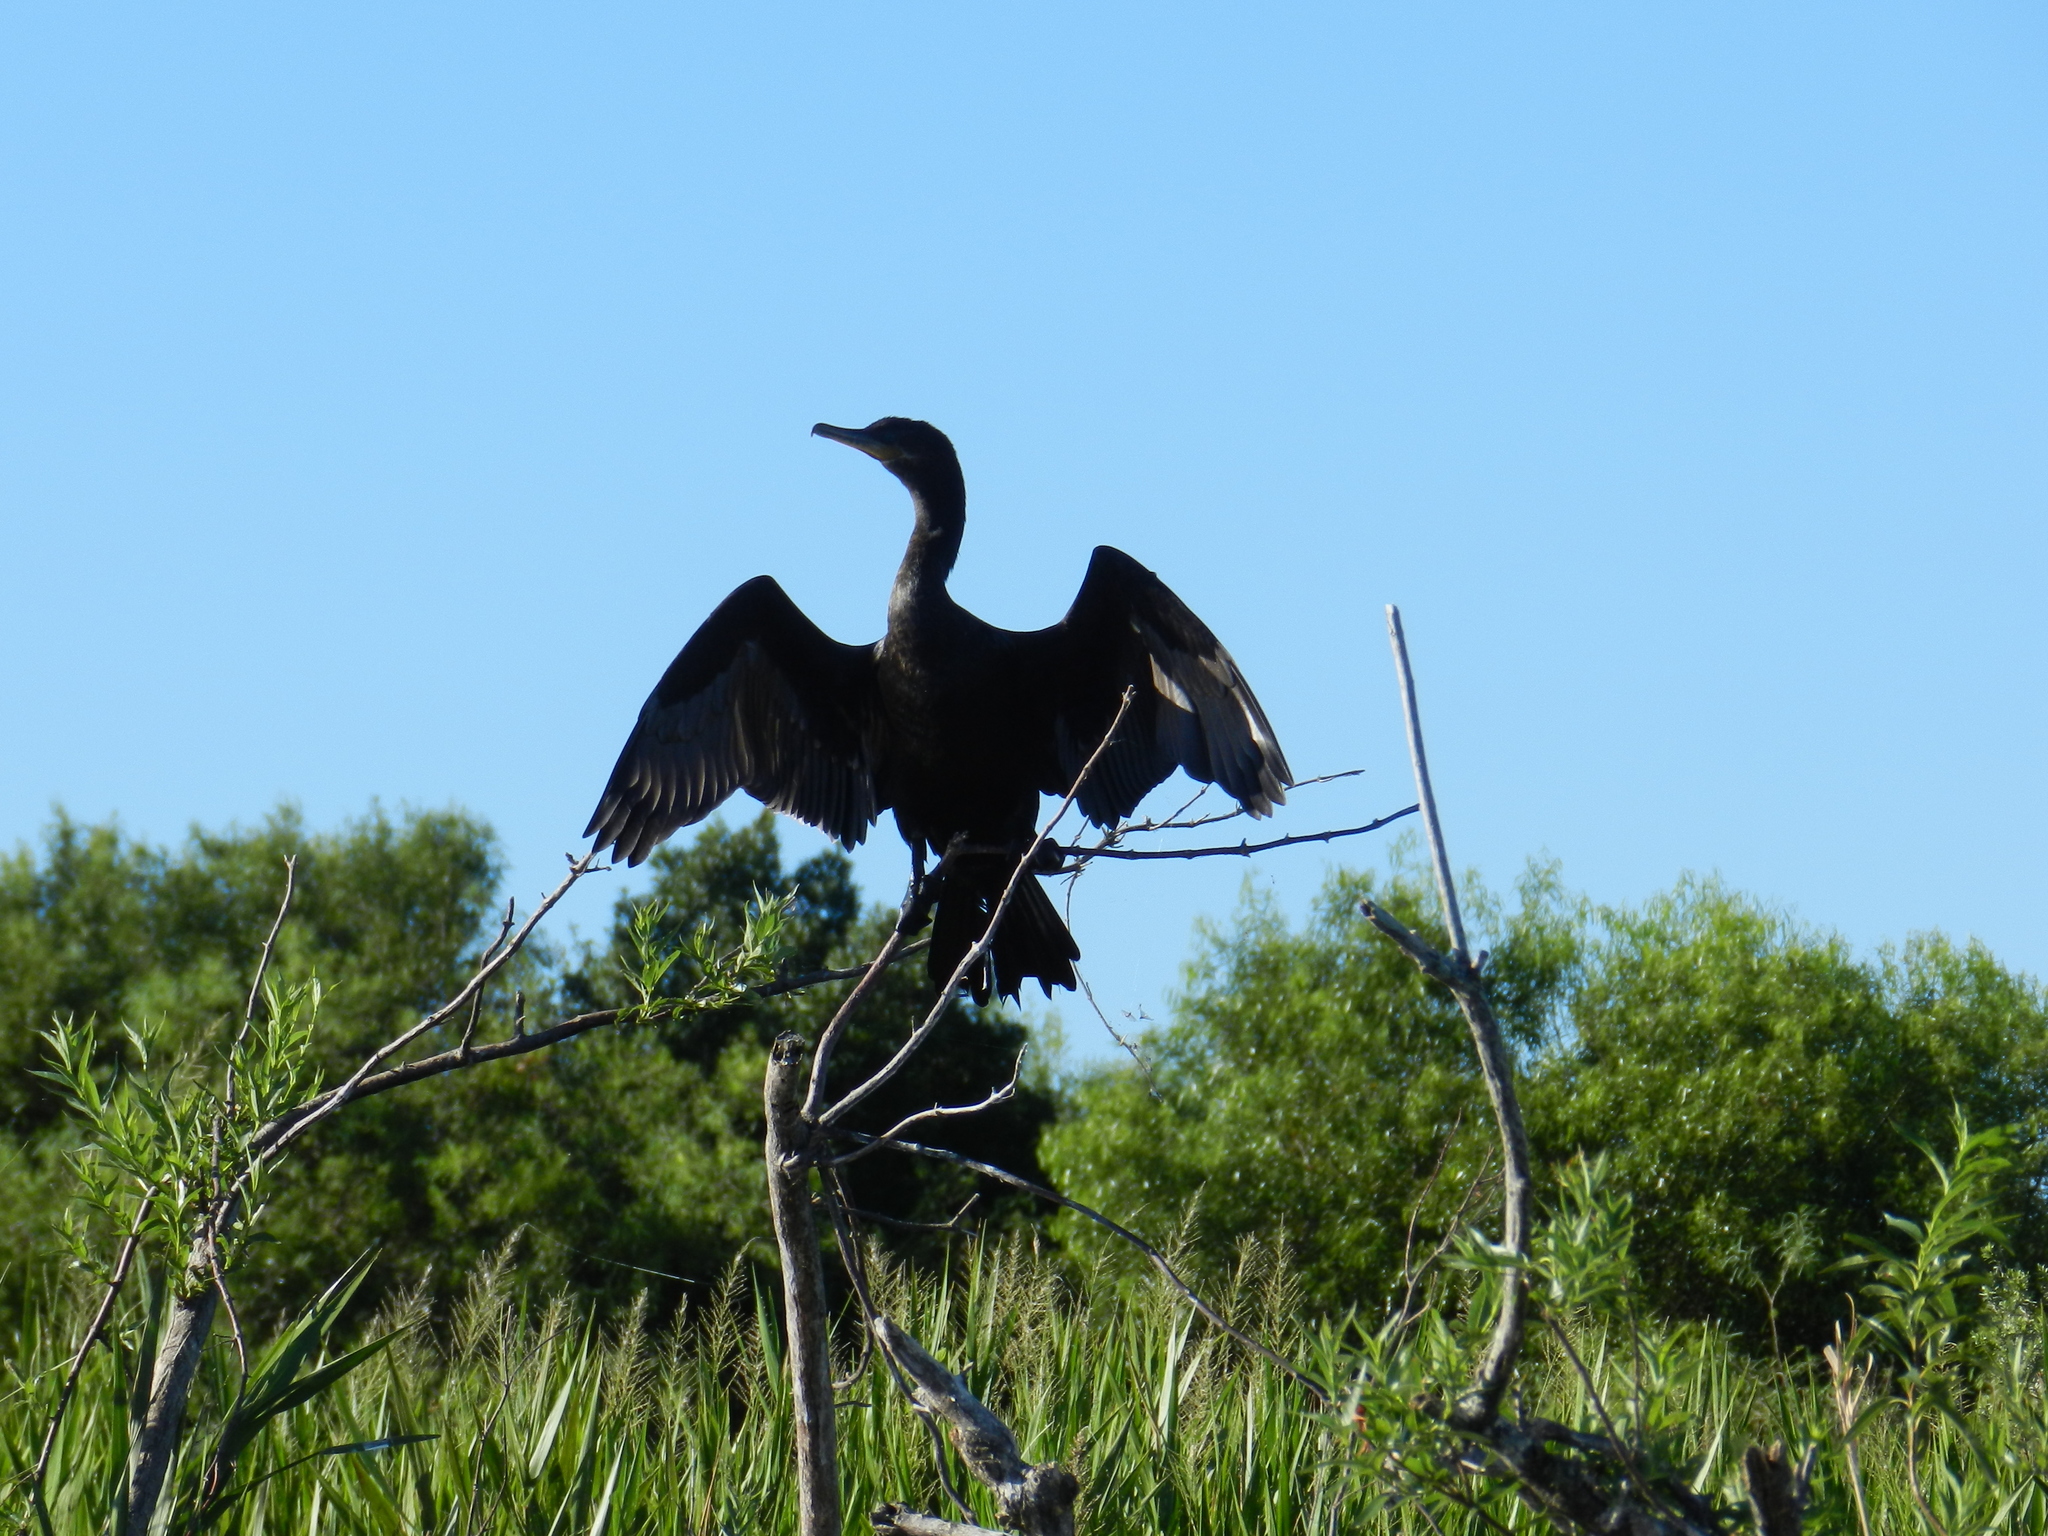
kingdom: Animalia
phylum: Chordata
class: Aves
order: Suliformes
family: Phalacrocoracidae
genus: Phalacrocorax
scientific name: Phalacrocorax brasilianus
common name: Neotropic cormorant
